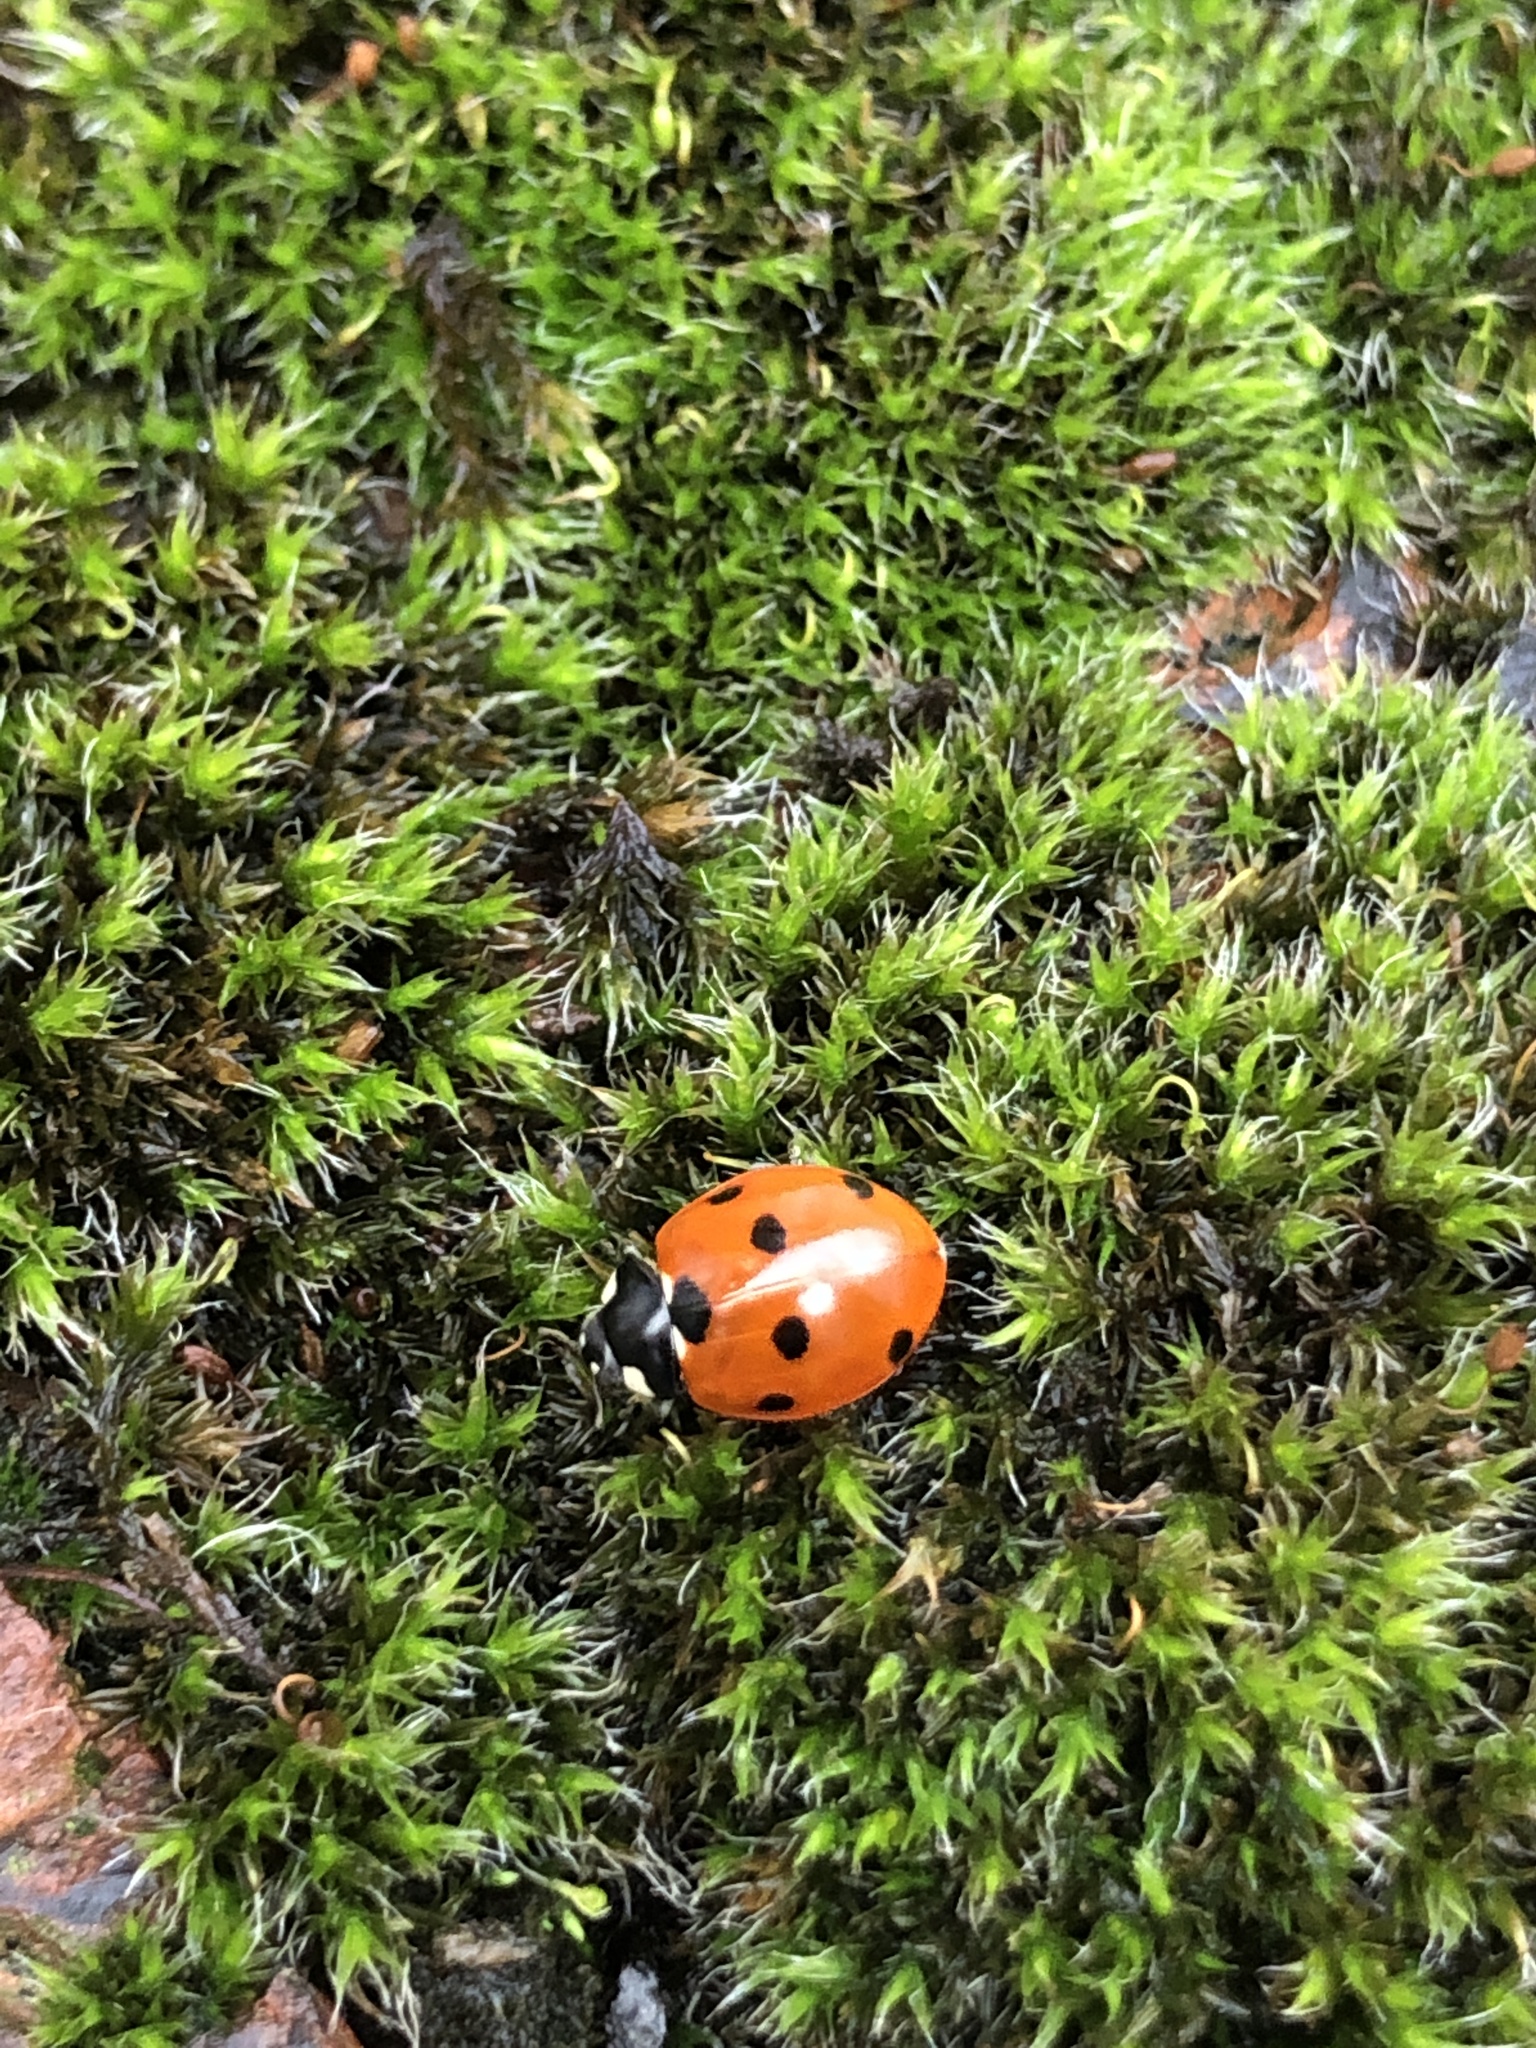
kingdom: Animalia
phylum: Arthropoda
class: Insecta
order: Coleoptera
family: Coccinellidae
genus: Coccinella
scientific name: Coccinella septempunctata
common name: Sevenspotted lady beetle
